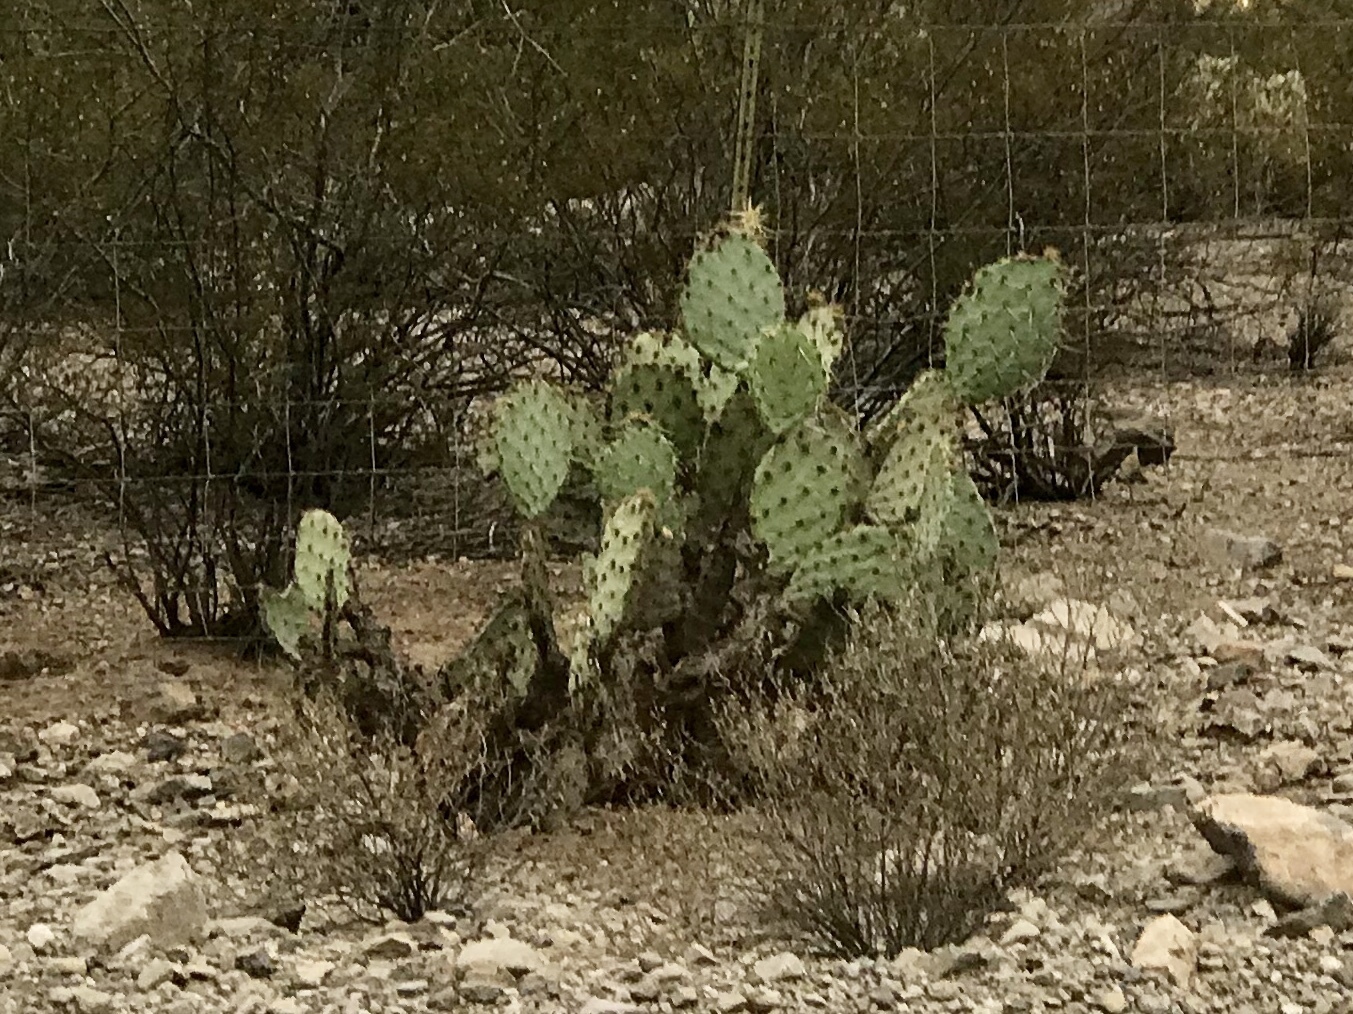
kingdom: Plantae
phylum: Tracheophyta
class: Magnoliopsida
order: Caryophyllales
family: Cactaceae
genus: Opuntia
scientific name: Opuntia engelmannii
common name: Cactus-apple
